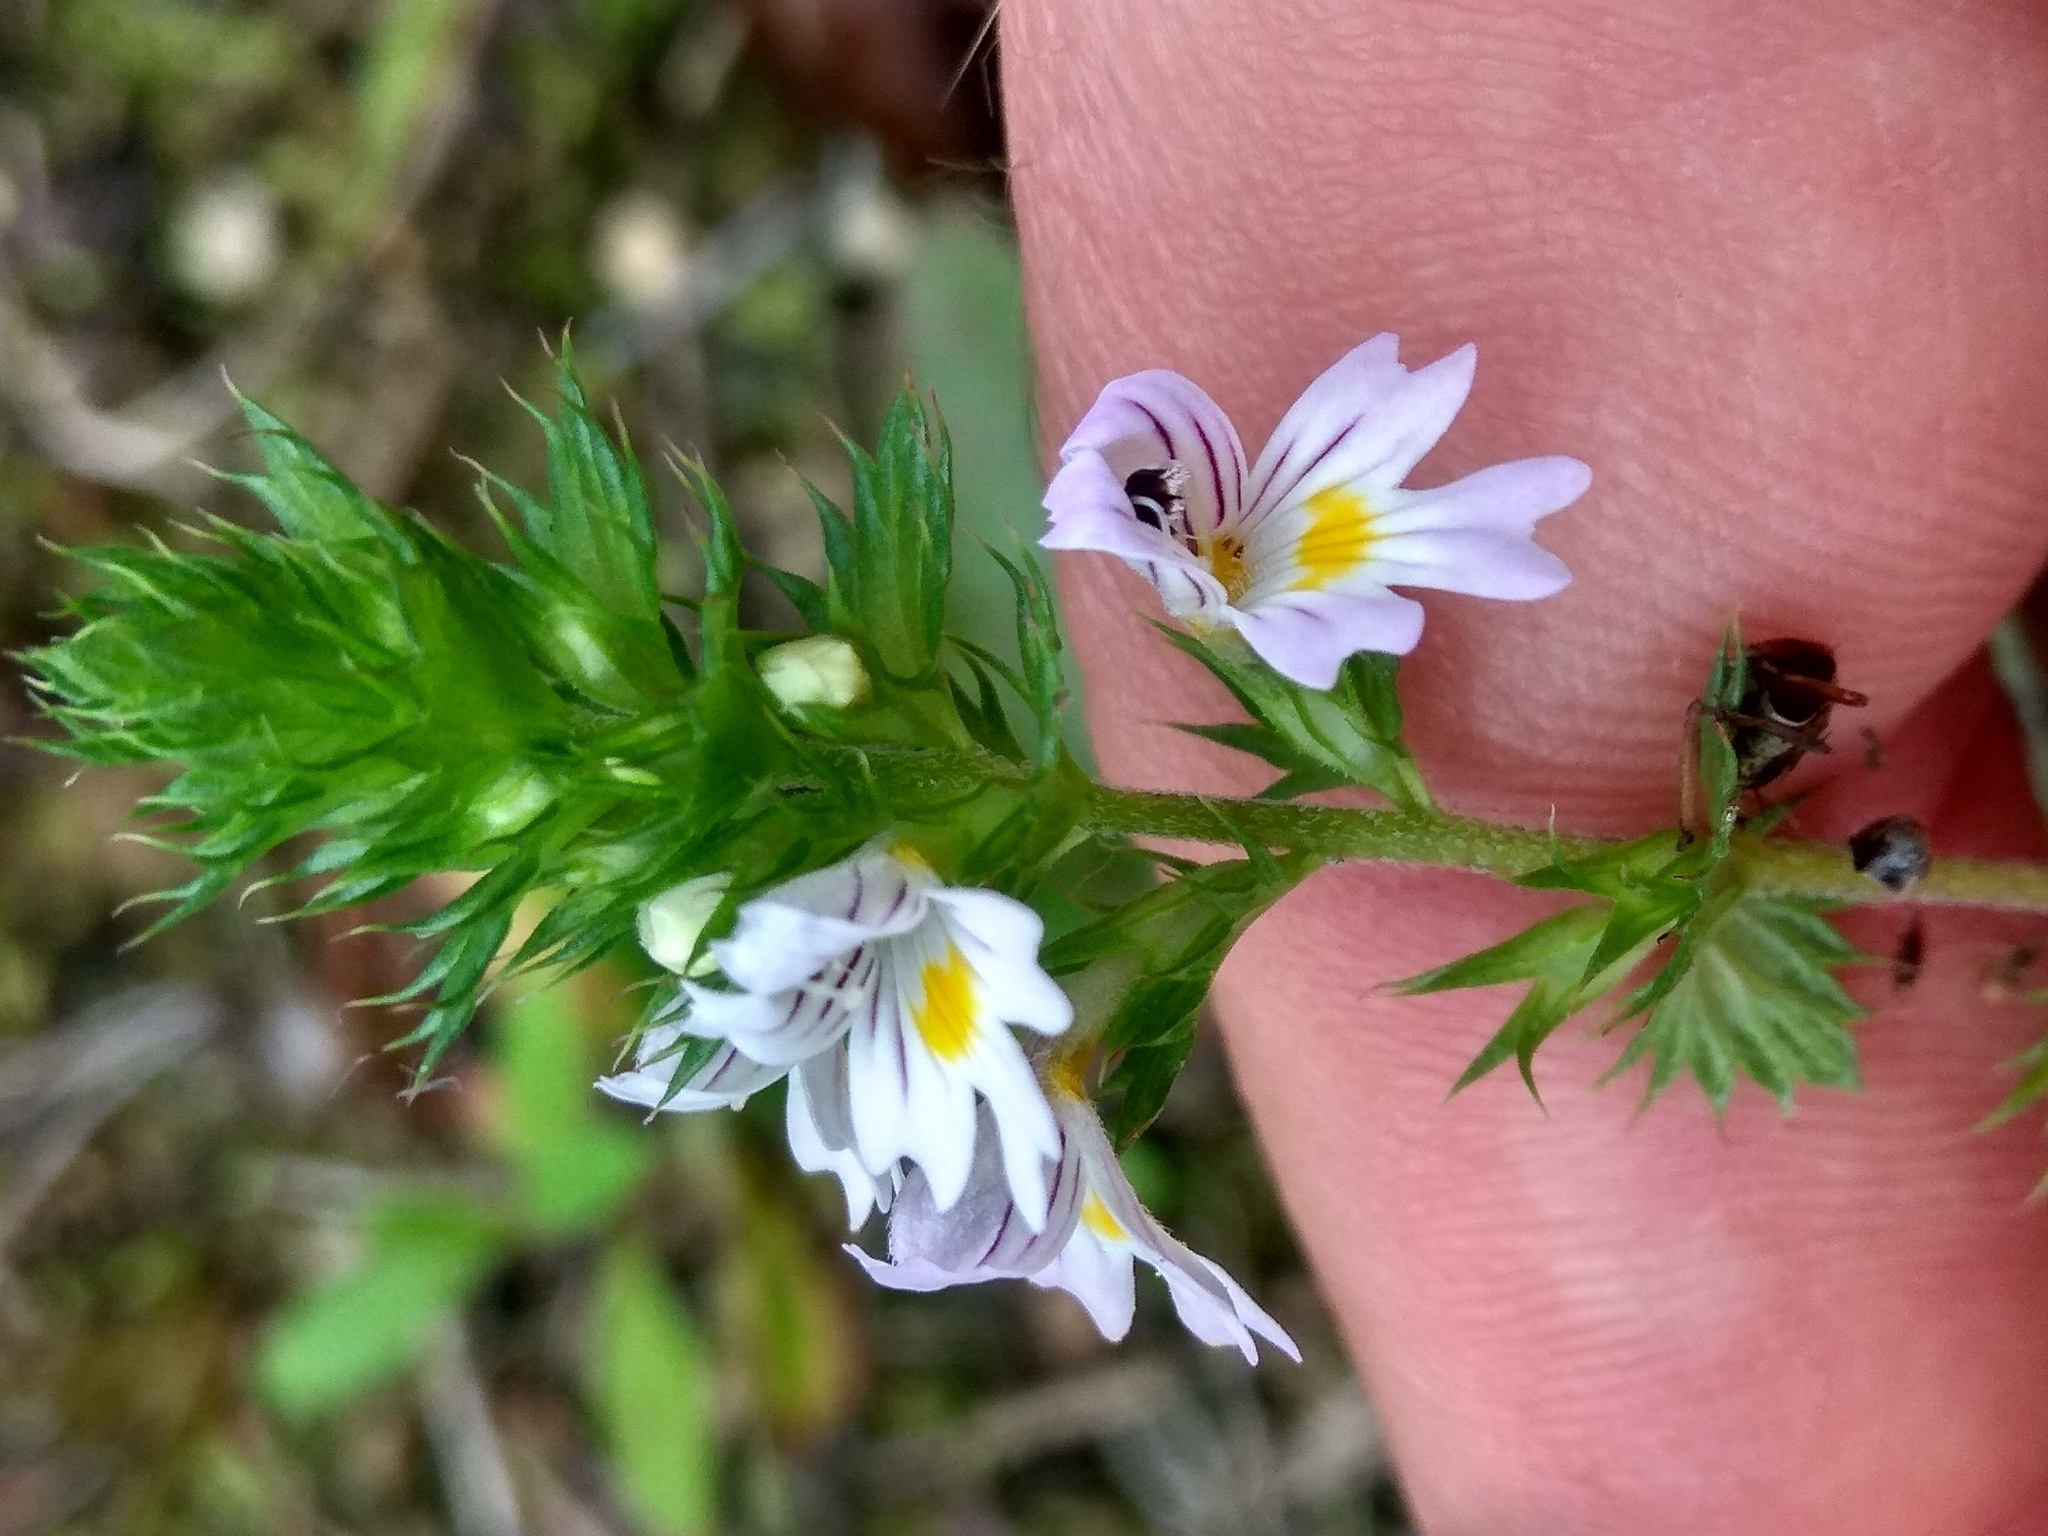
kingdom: Plantae
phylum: Tracheophyta
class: Magnoliopsida
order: Lamiales
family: Orobanchaceae
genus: Euphrasia
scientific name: Euphrasia stricta
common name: Drug eyebright
